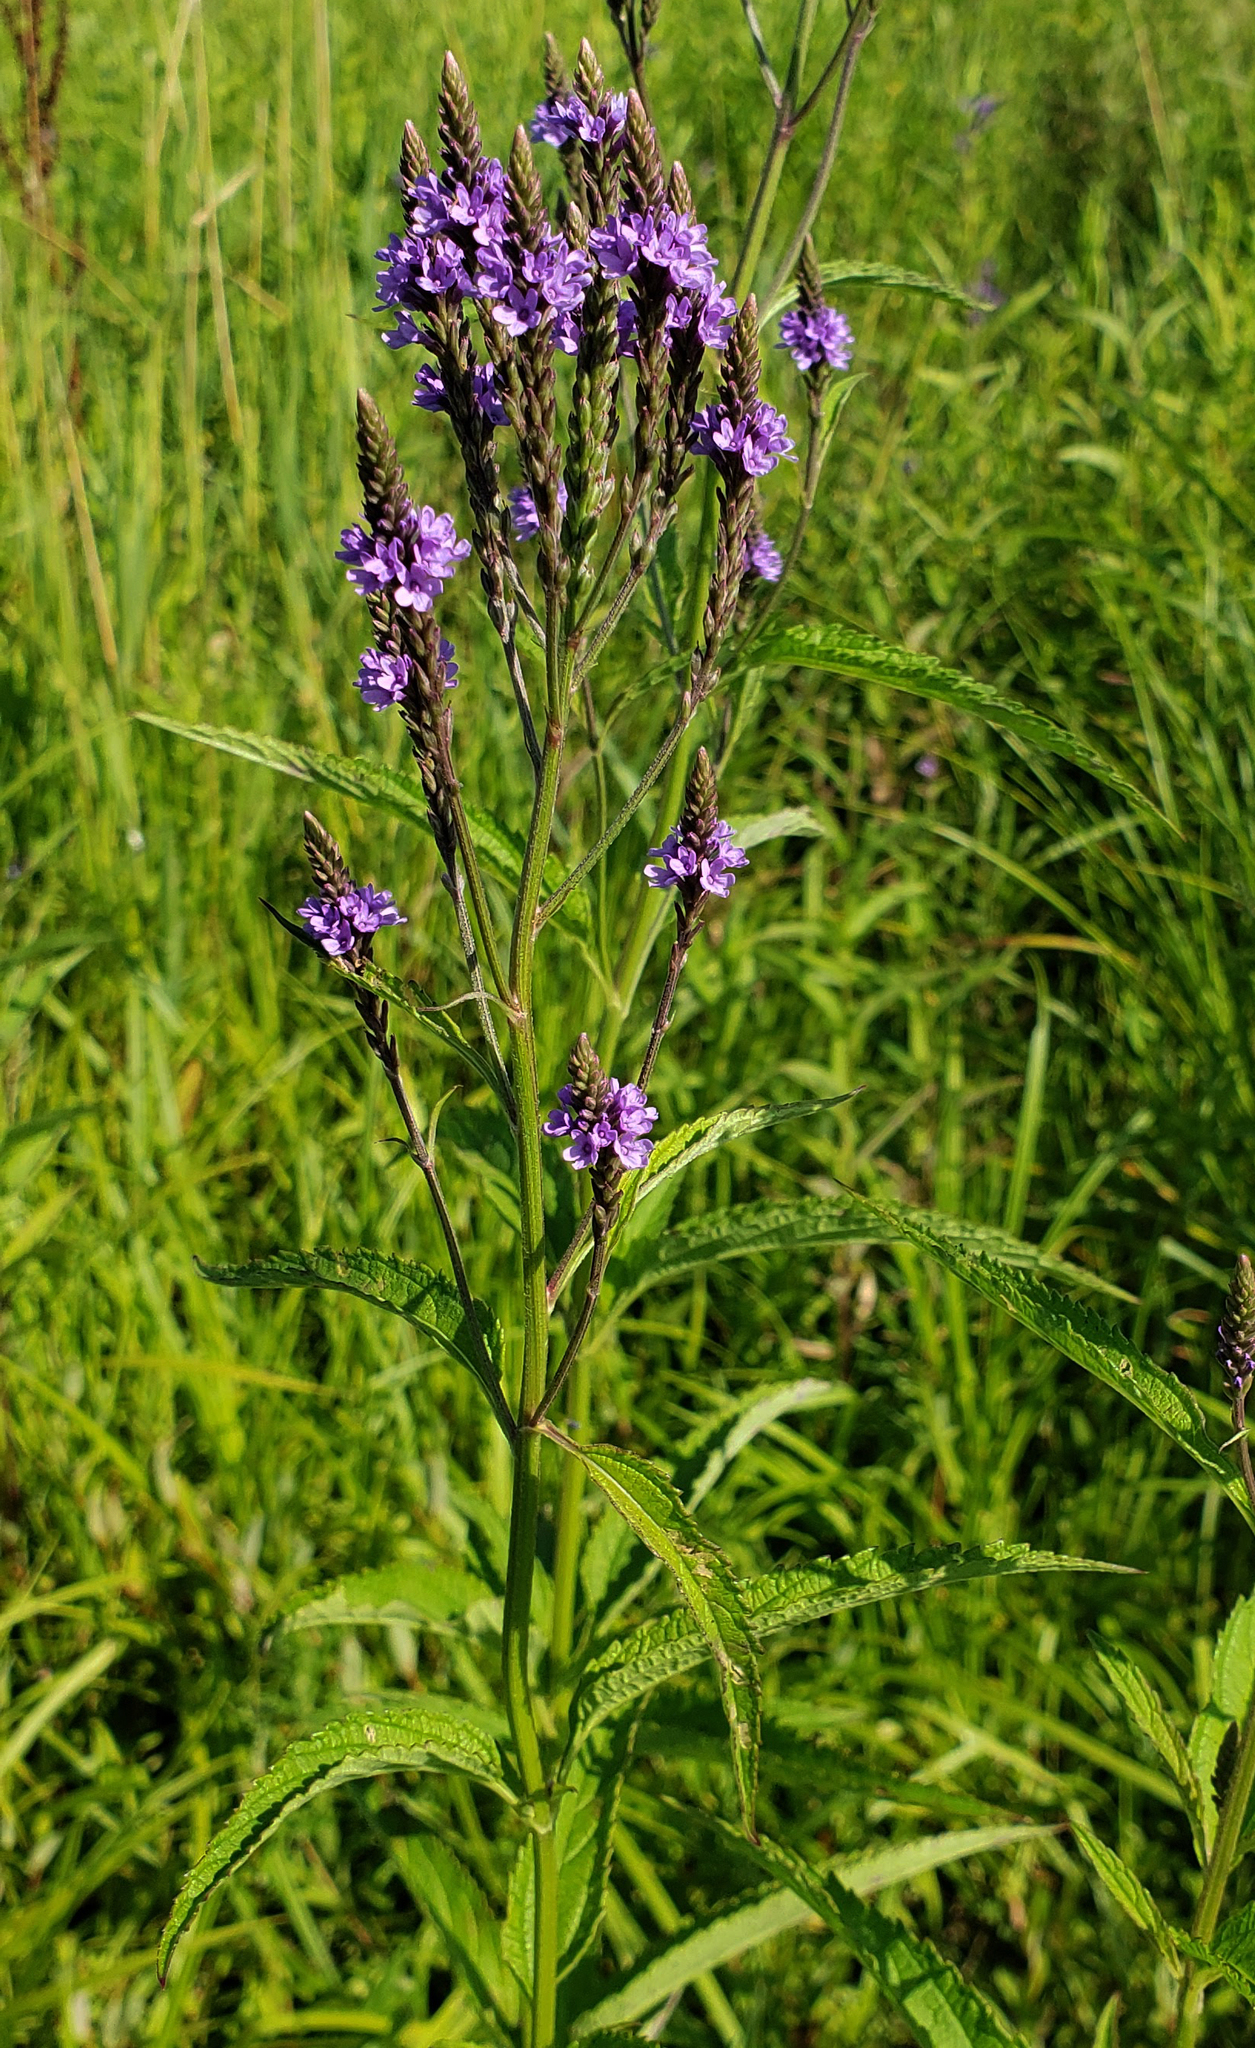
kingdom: Plantae
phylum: Tracheophyta
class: Magnoliopsida
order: Lamiales
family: Verbenaceae
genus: Verbena
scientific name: Verbena hastata
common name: American blue vervain
